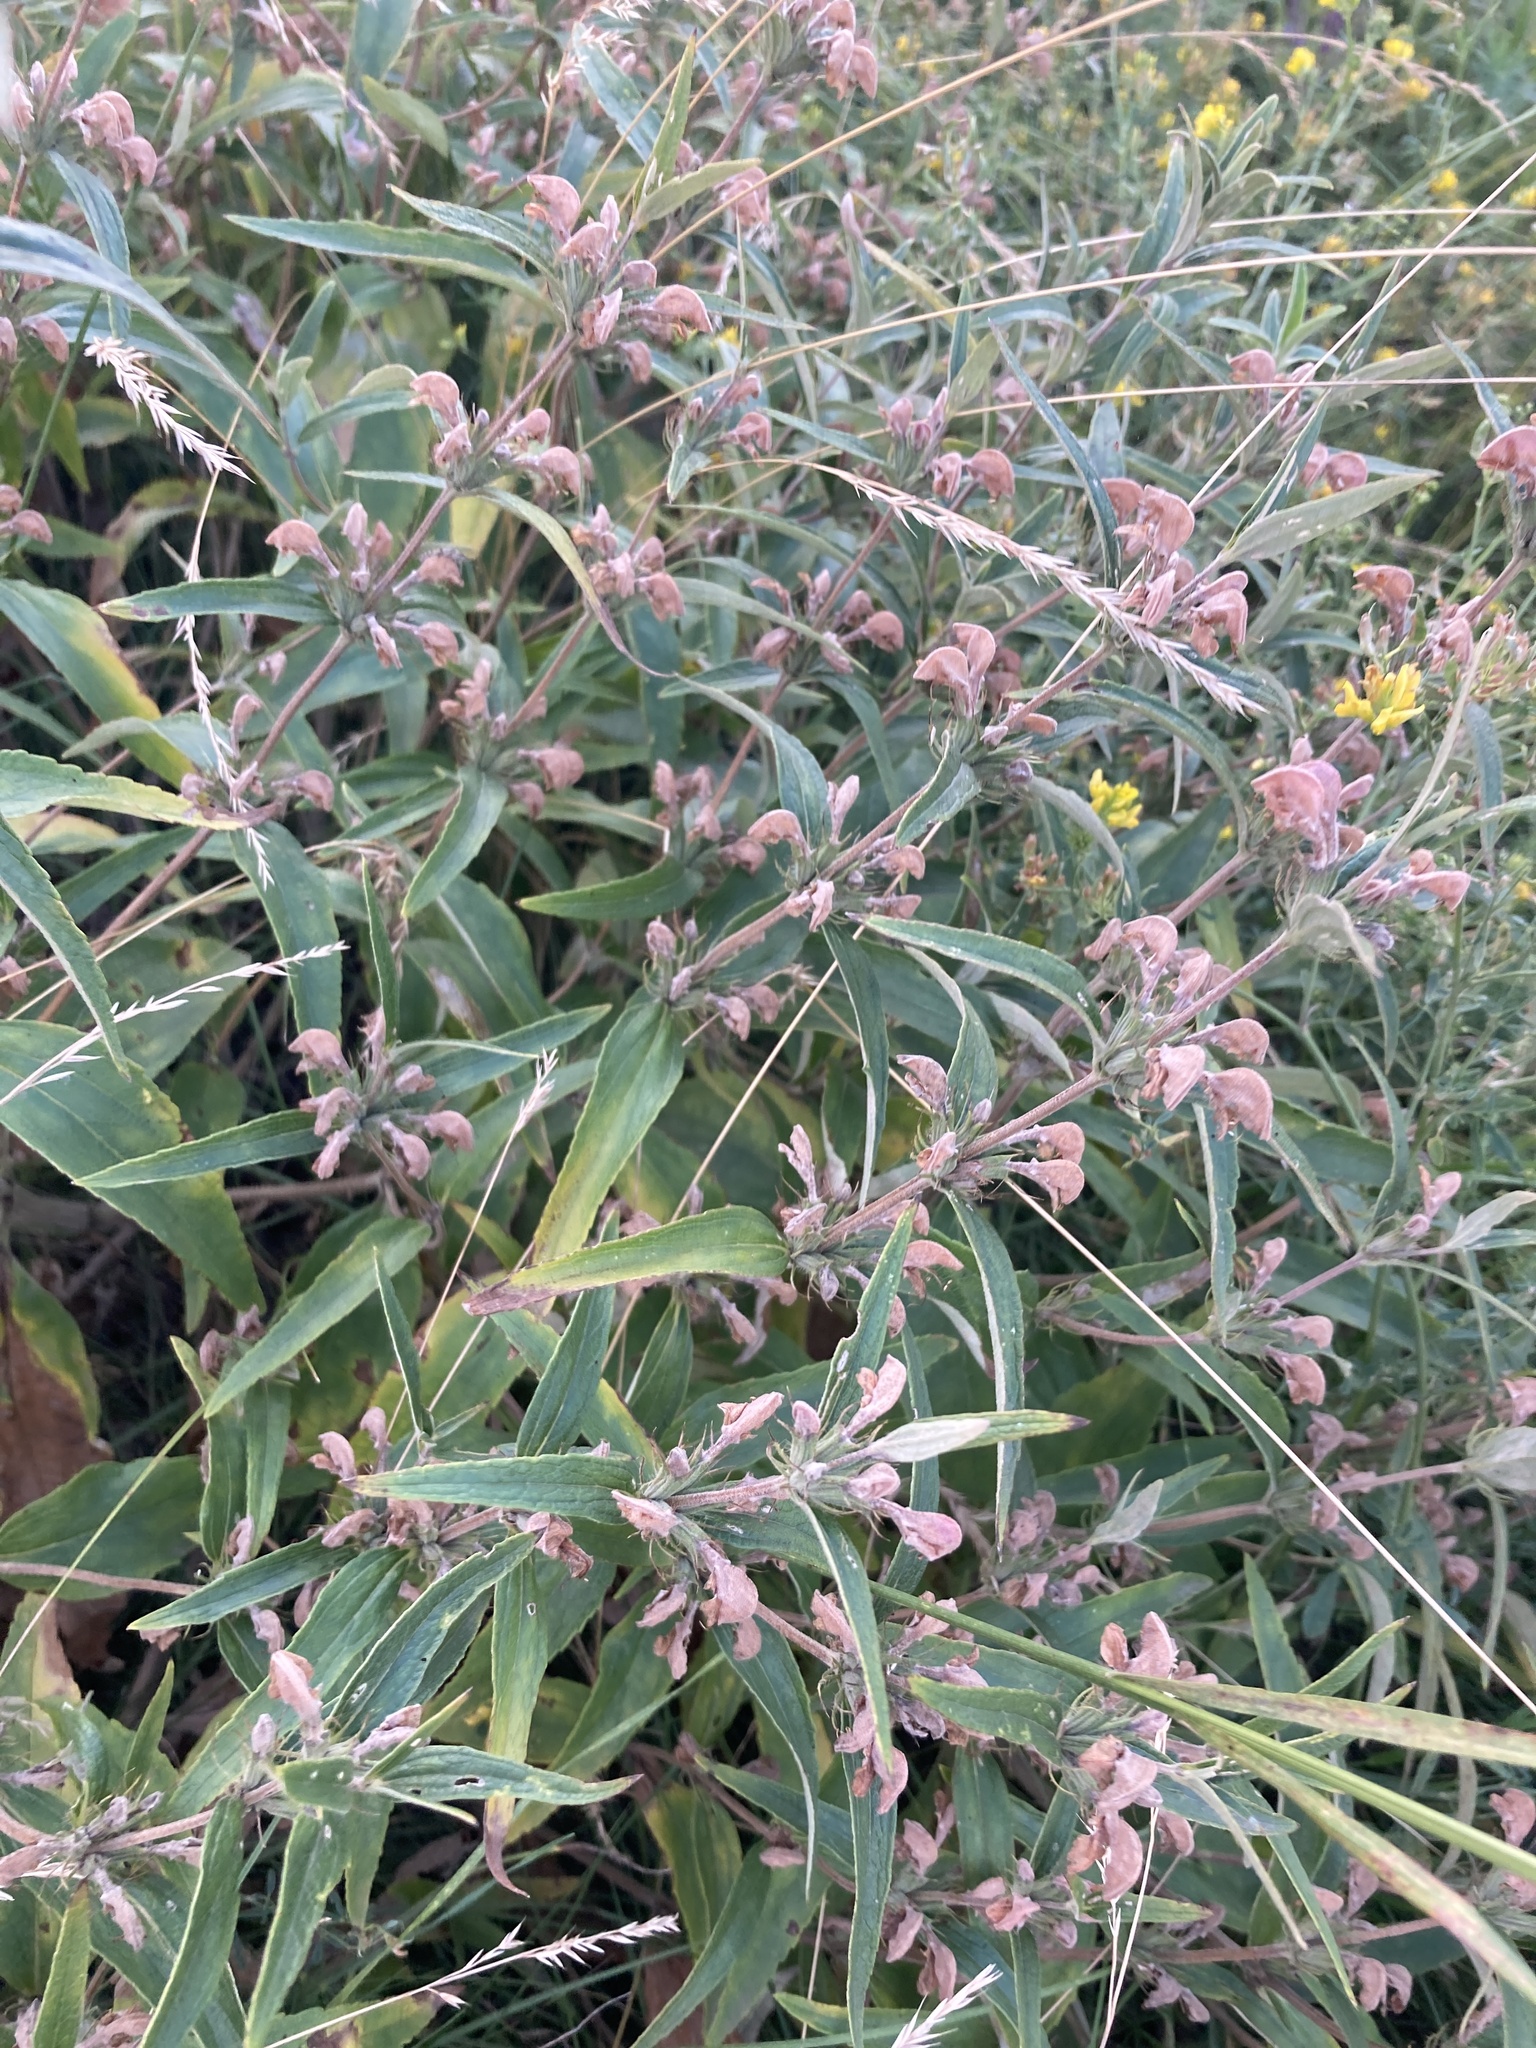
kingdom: Plantae
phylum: Tracheophyta
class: Magnoliopsida
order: Lamiales
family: Lamiaceae
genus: Phlomis
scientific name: Phlomis herba-venti
